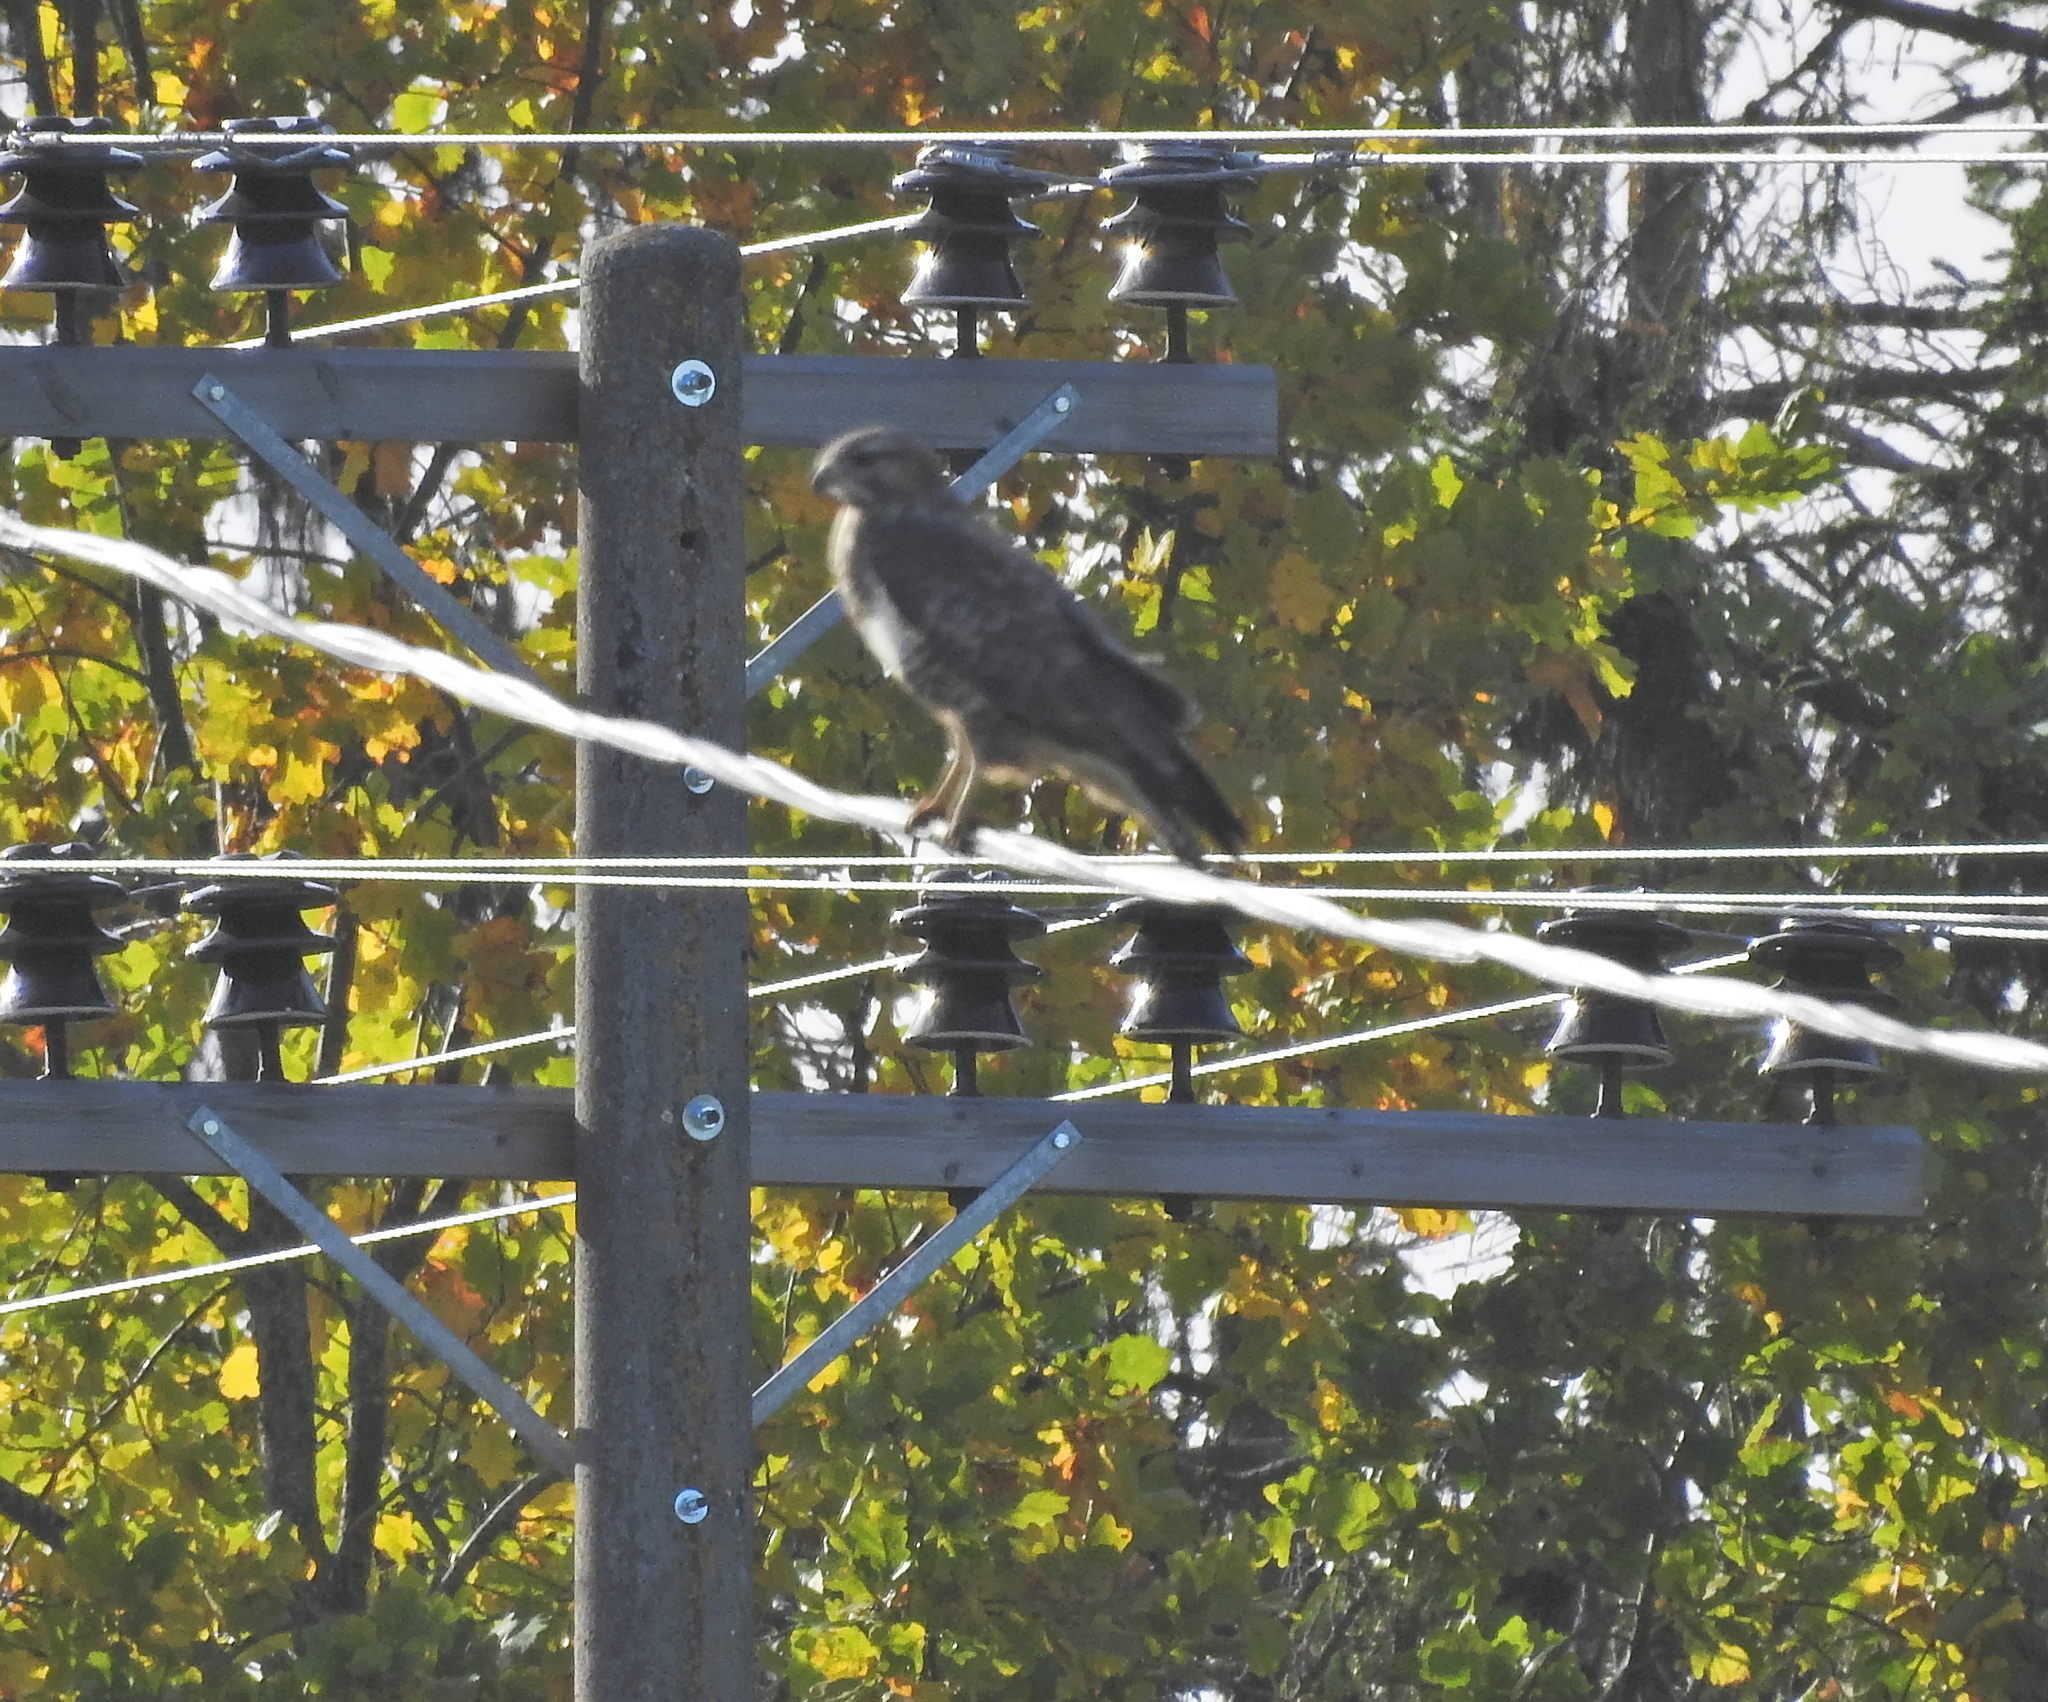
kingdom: Animalia
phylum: Chordata
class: Aves
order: Accipitriformes
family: Accipitridae
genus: Buteo
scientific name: Buteo buteo
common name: Common buzzard
